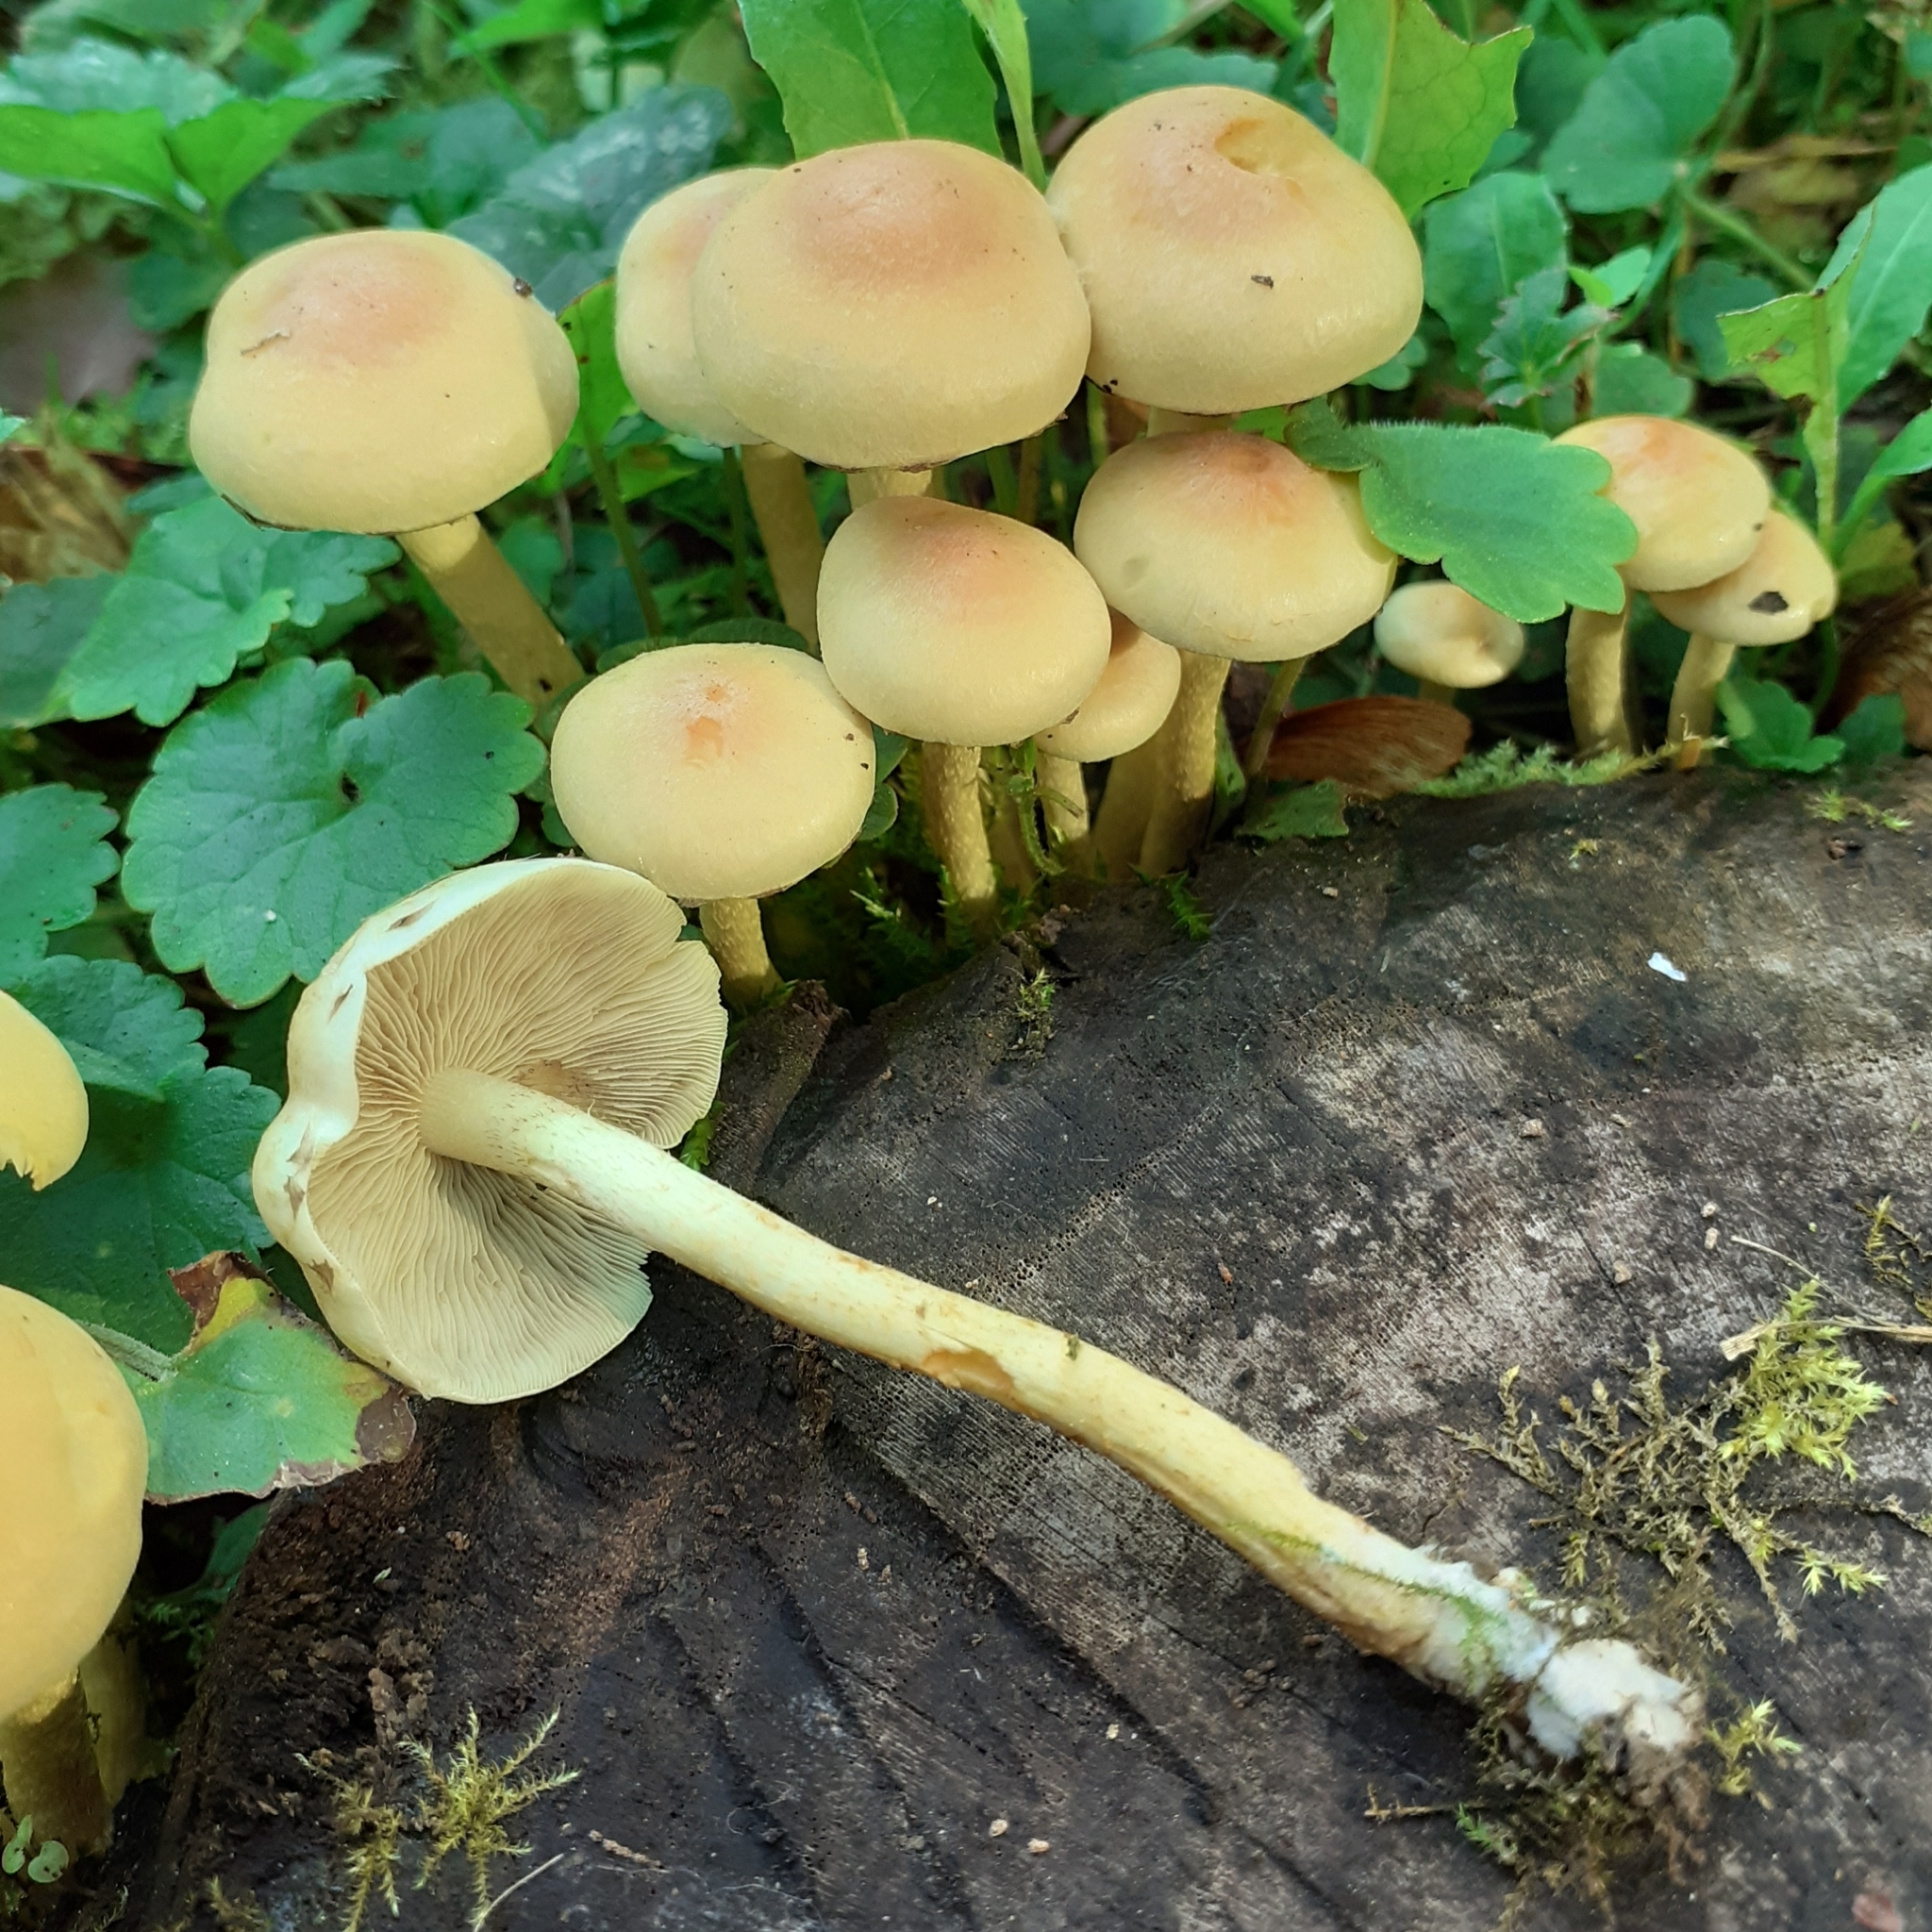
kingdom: Fungi
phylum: Basidiomycota
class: Agaricomycetes
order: Agaricales
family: Strophariaceae
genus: Hypholoma
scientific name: Hypholoma fasciculare
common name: Sulphur tuft
